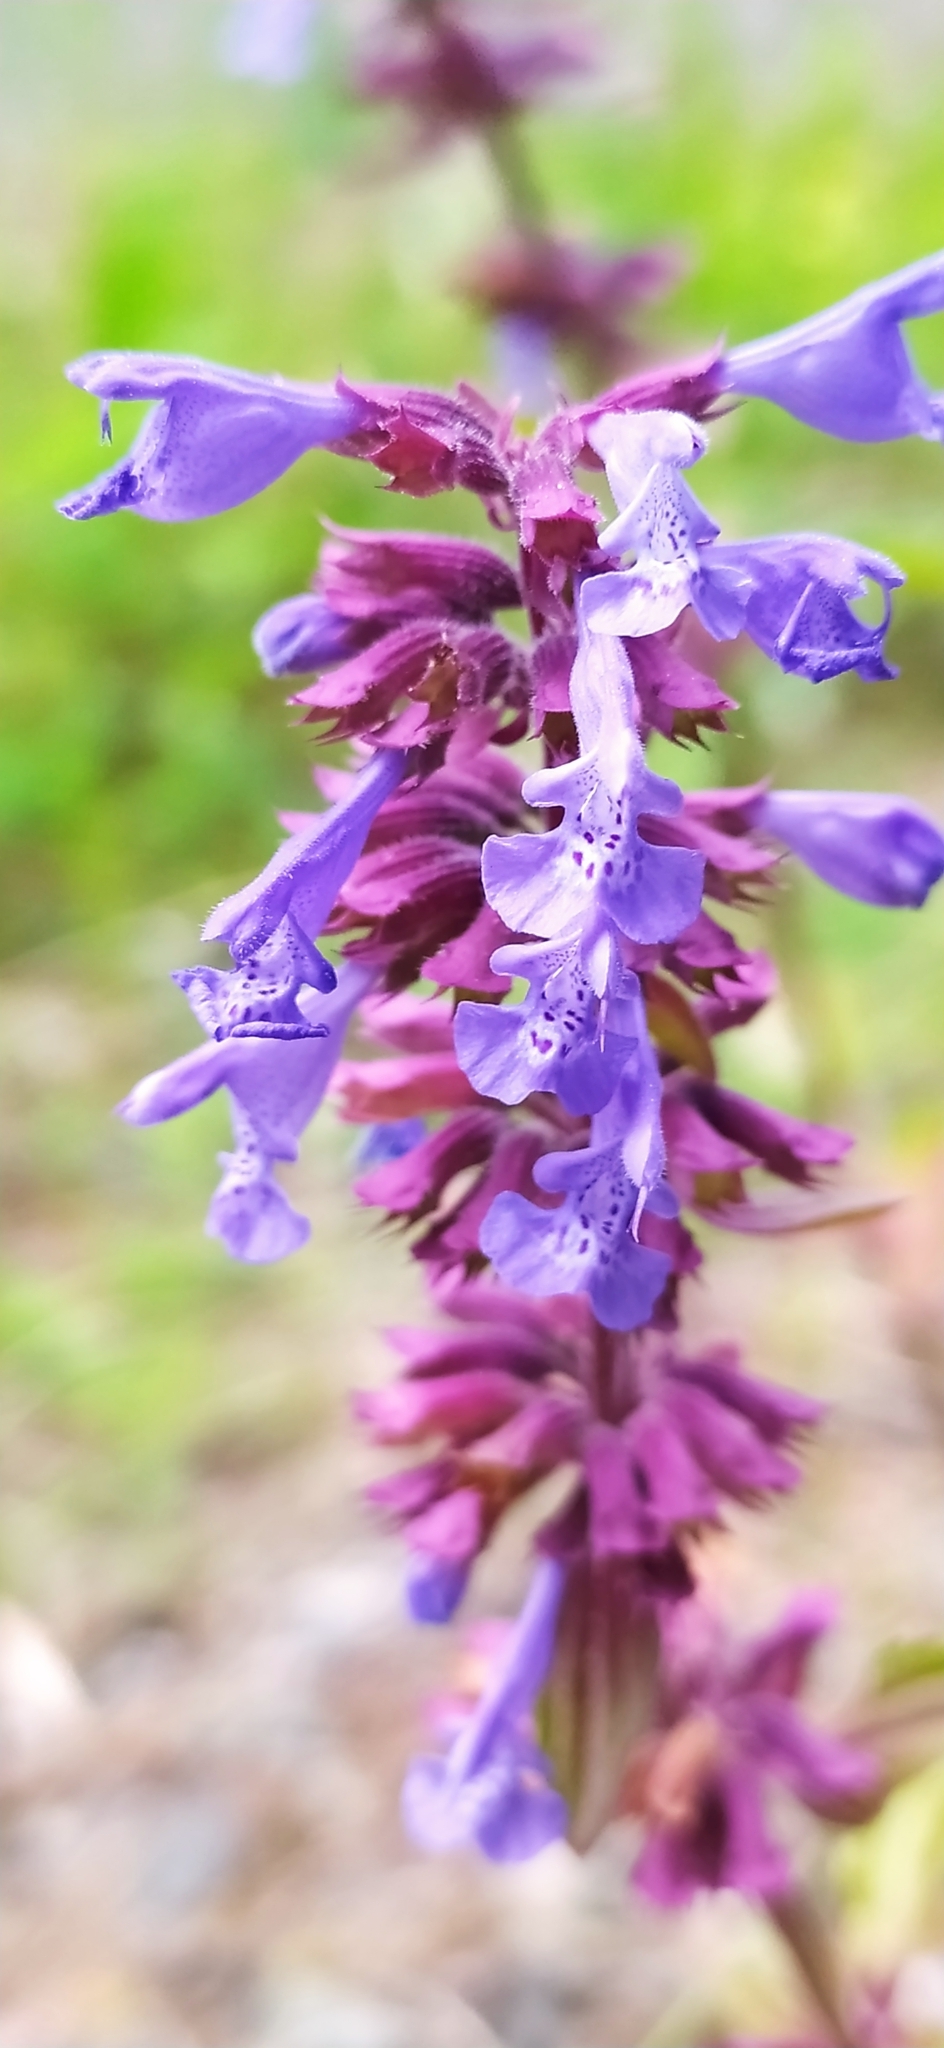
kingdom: Plantae
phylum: Tracheophyta
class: Magnoliopsida
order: Lamiales
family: Lamiaceae
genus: Dracocephalum
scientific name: Dracocephalum nutans
